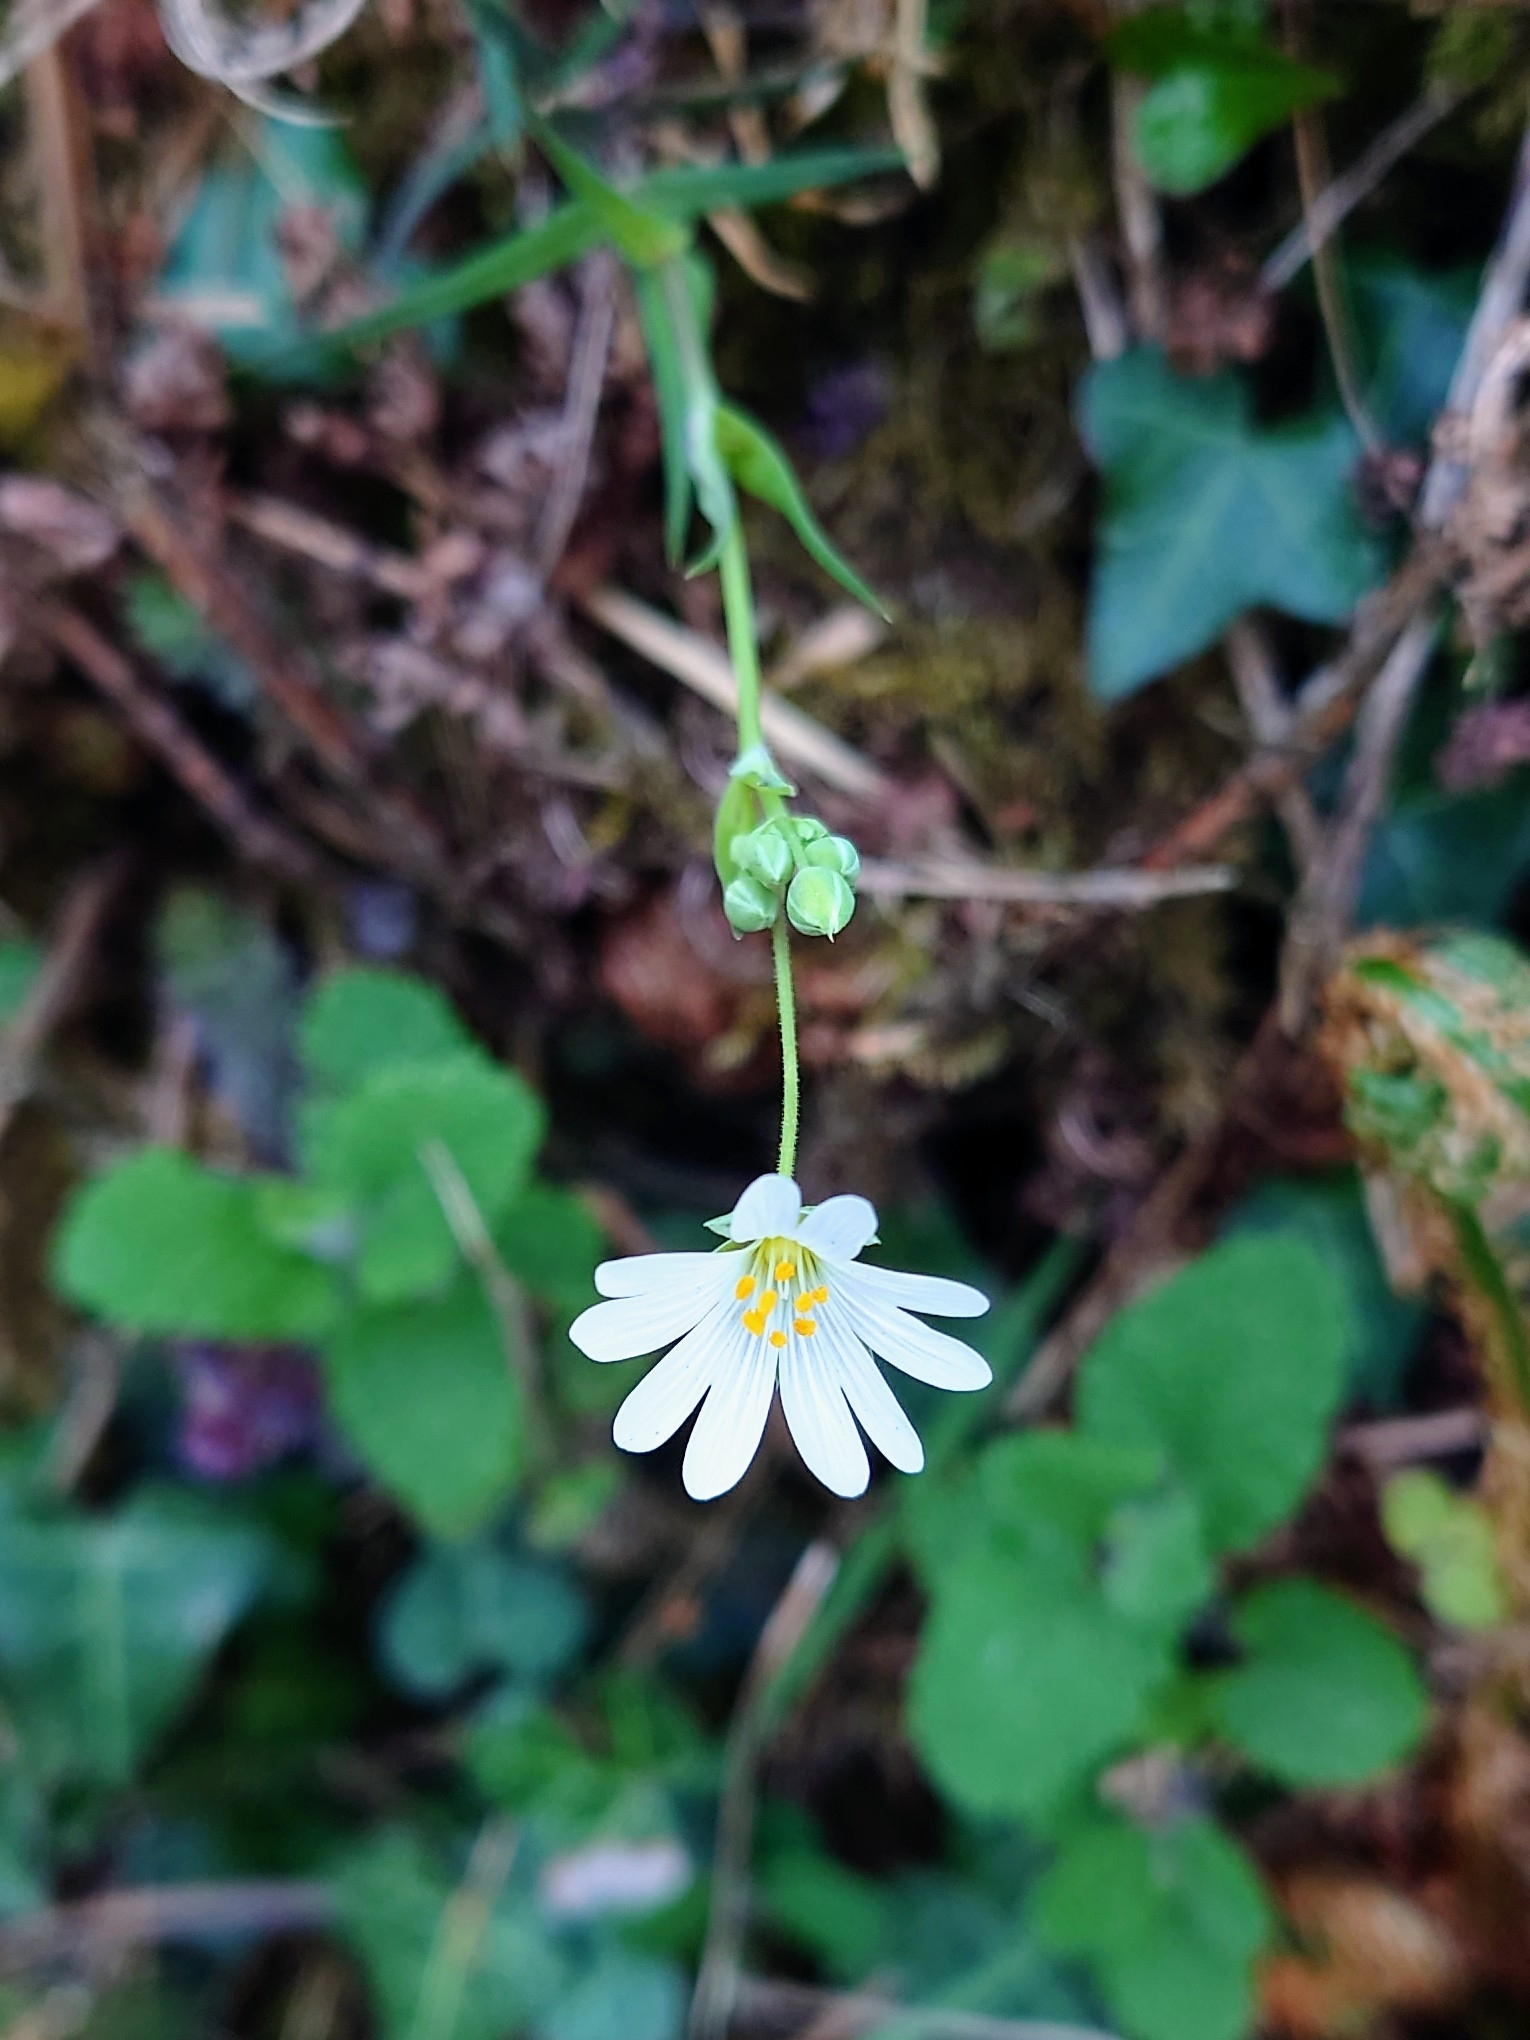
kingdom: Plantae
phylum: Tracheophyta
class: Magnoliopsida
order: Caryophyllales
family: Caryophyllaceae
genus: Rabelera
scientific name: Rabelera holostea
